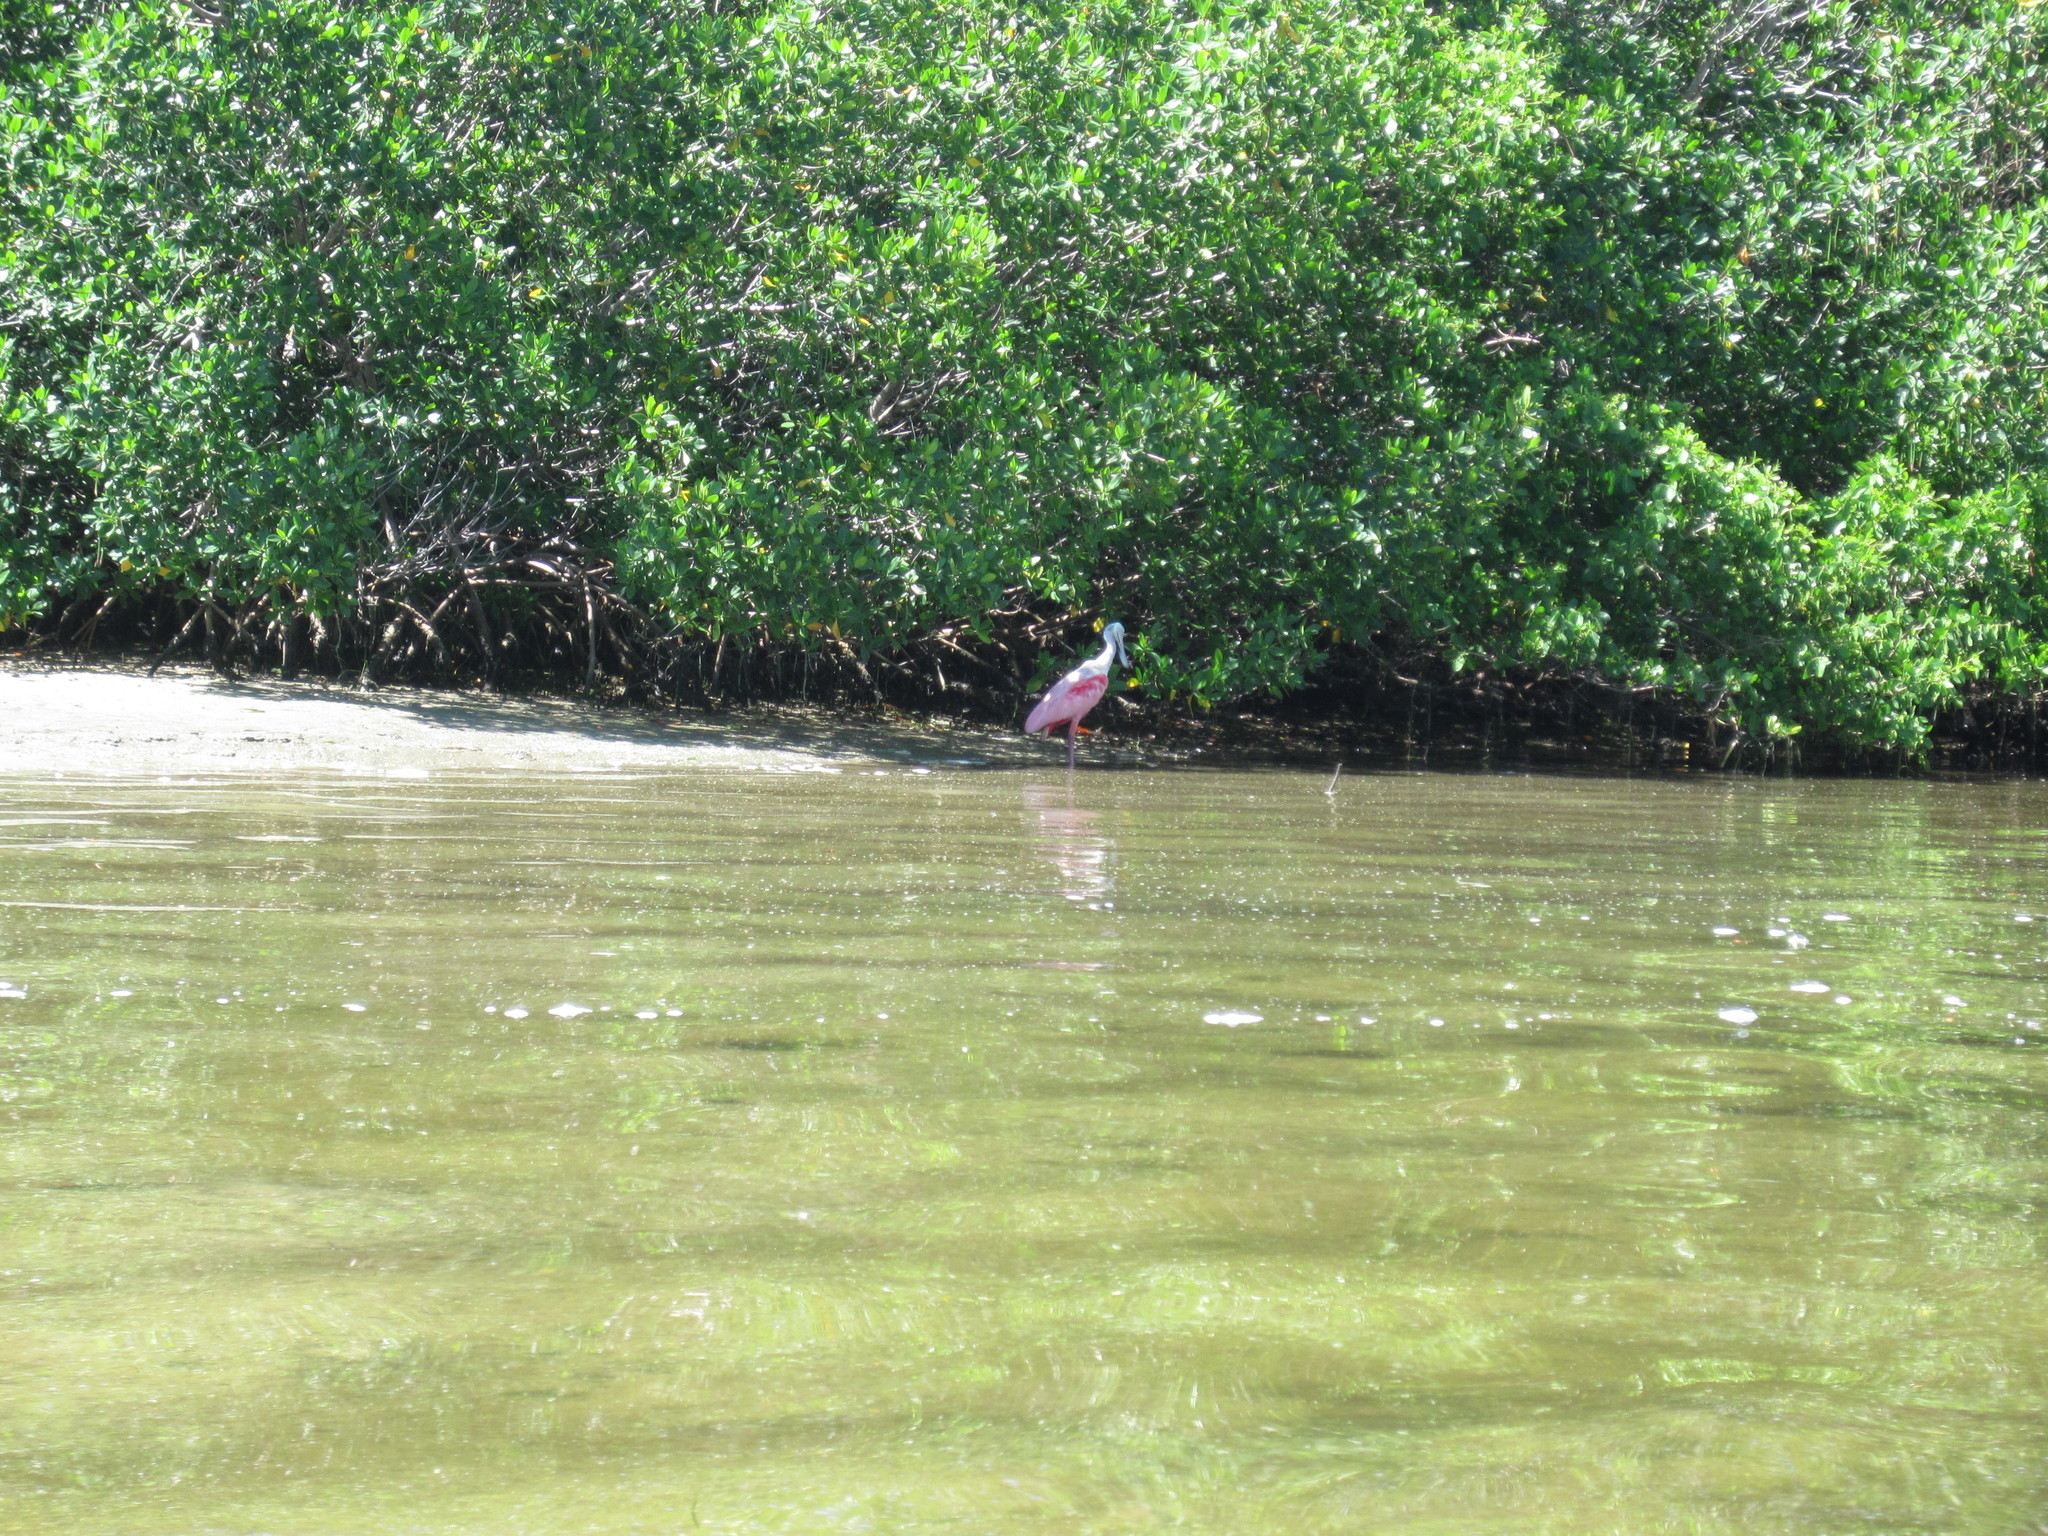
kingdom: Animalia
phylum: Chordata
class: Aves
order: Pelecaniformes
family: Threskiornithidae
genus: Platalea
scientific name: Platalea ajaja
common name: Roseate spoonbill
